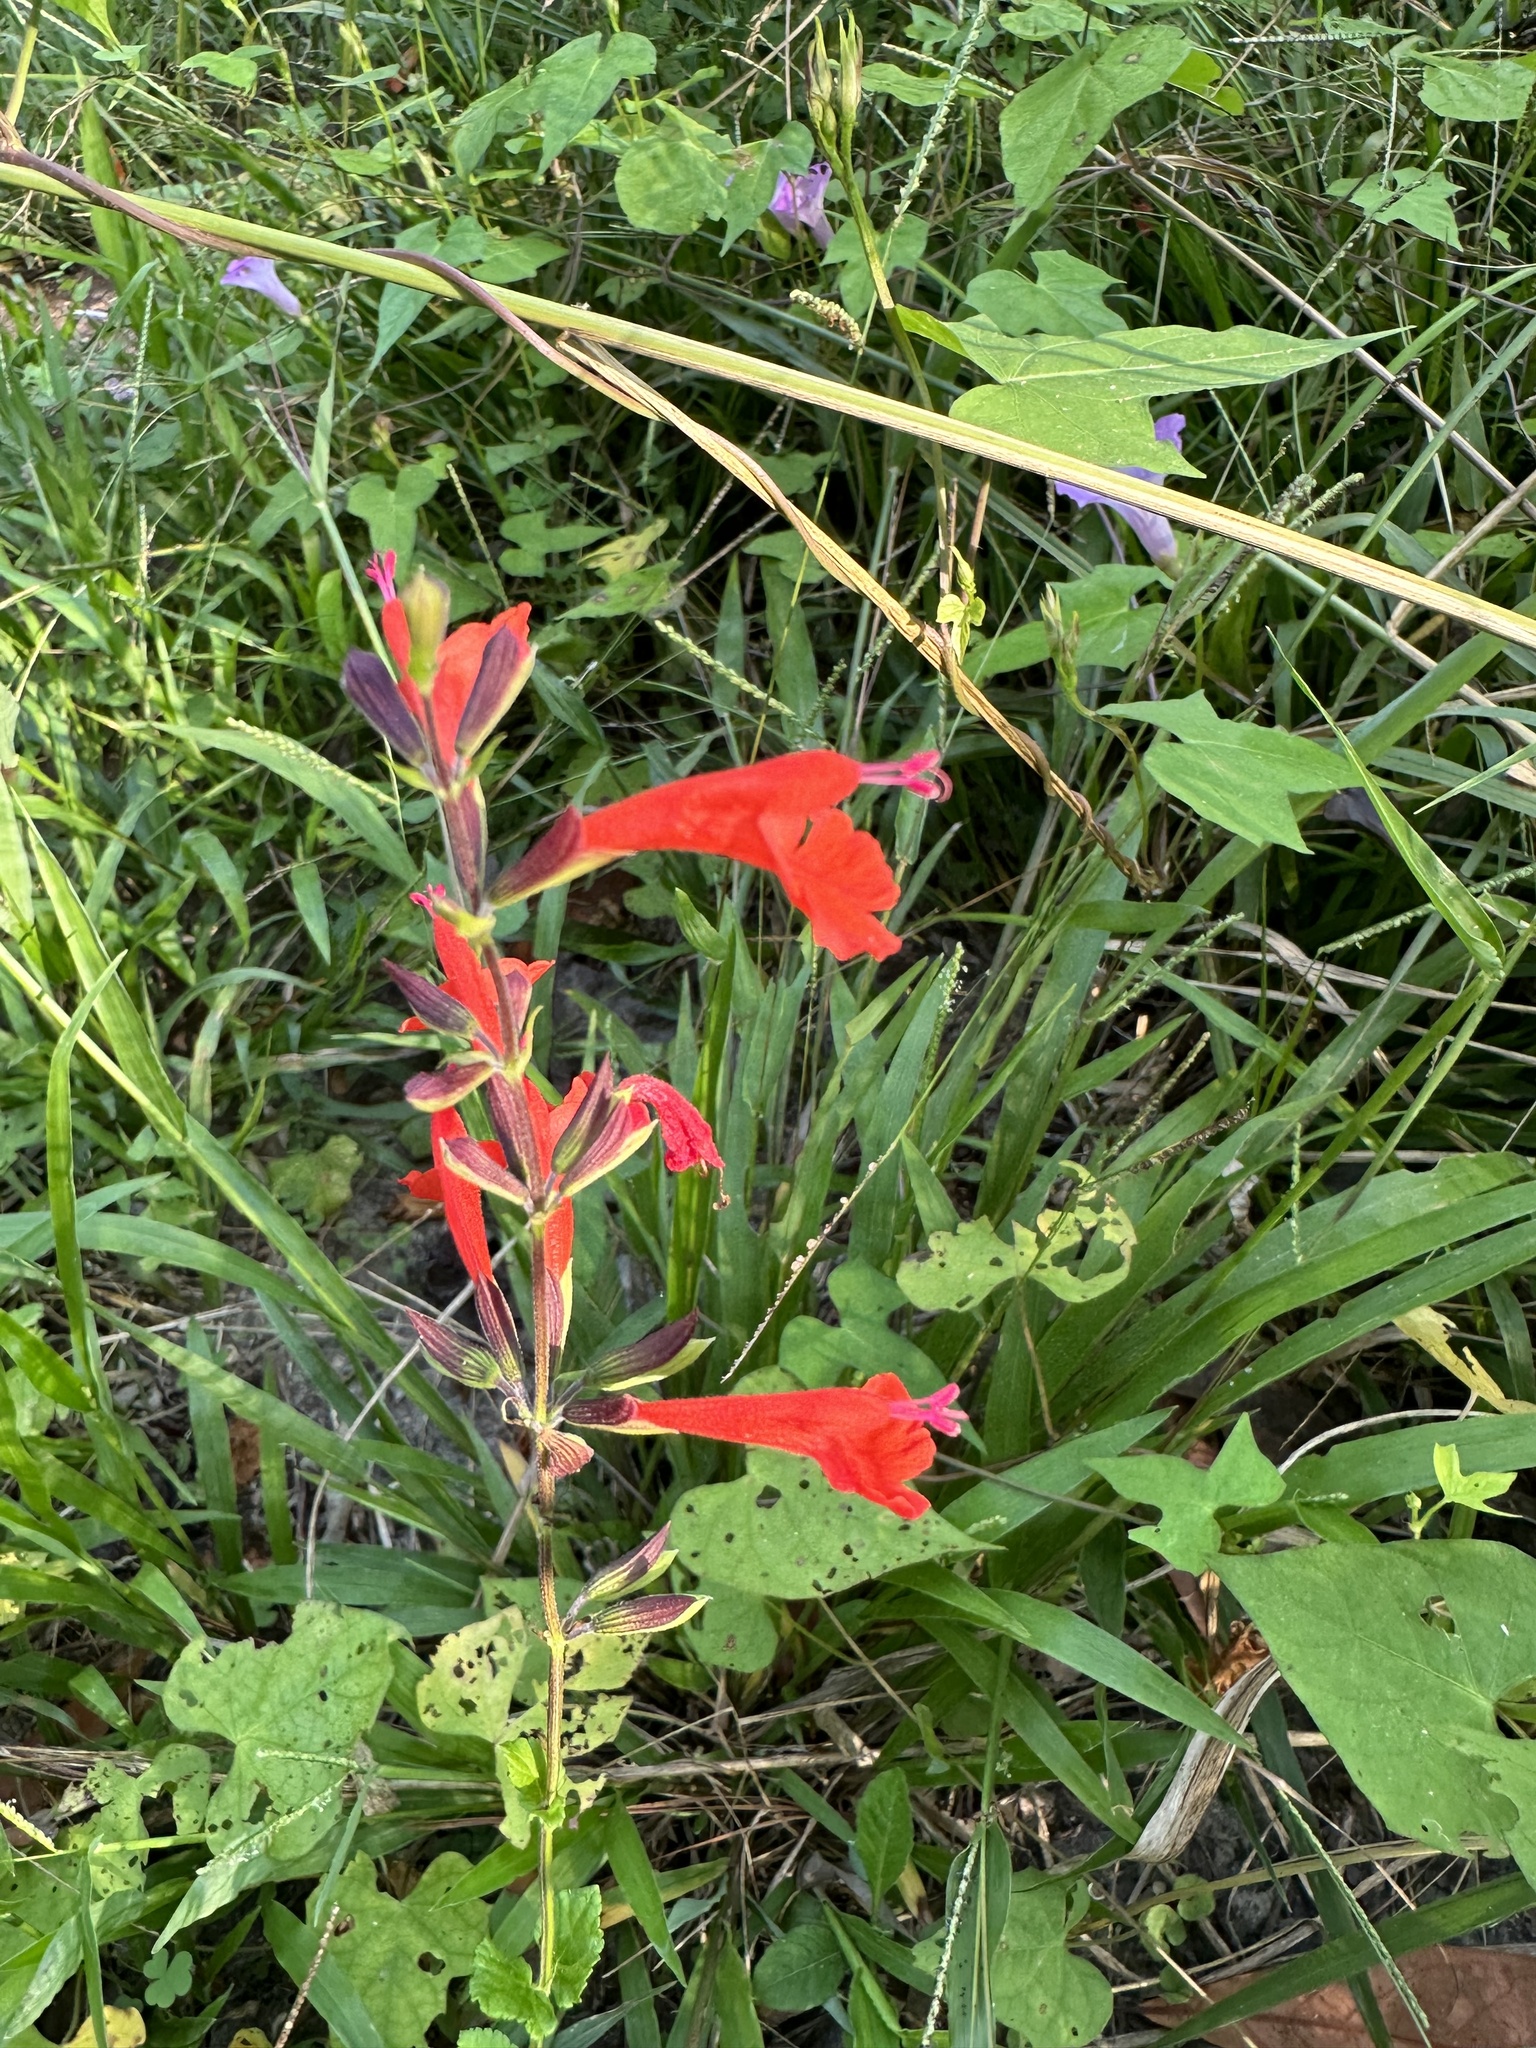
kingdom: Plantae
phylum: Tracheophyta
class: Magnoliopsida
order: Lamiales
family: Lamiaceae
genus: Salvia
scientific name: Salvia coccinea
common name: Blood sage
